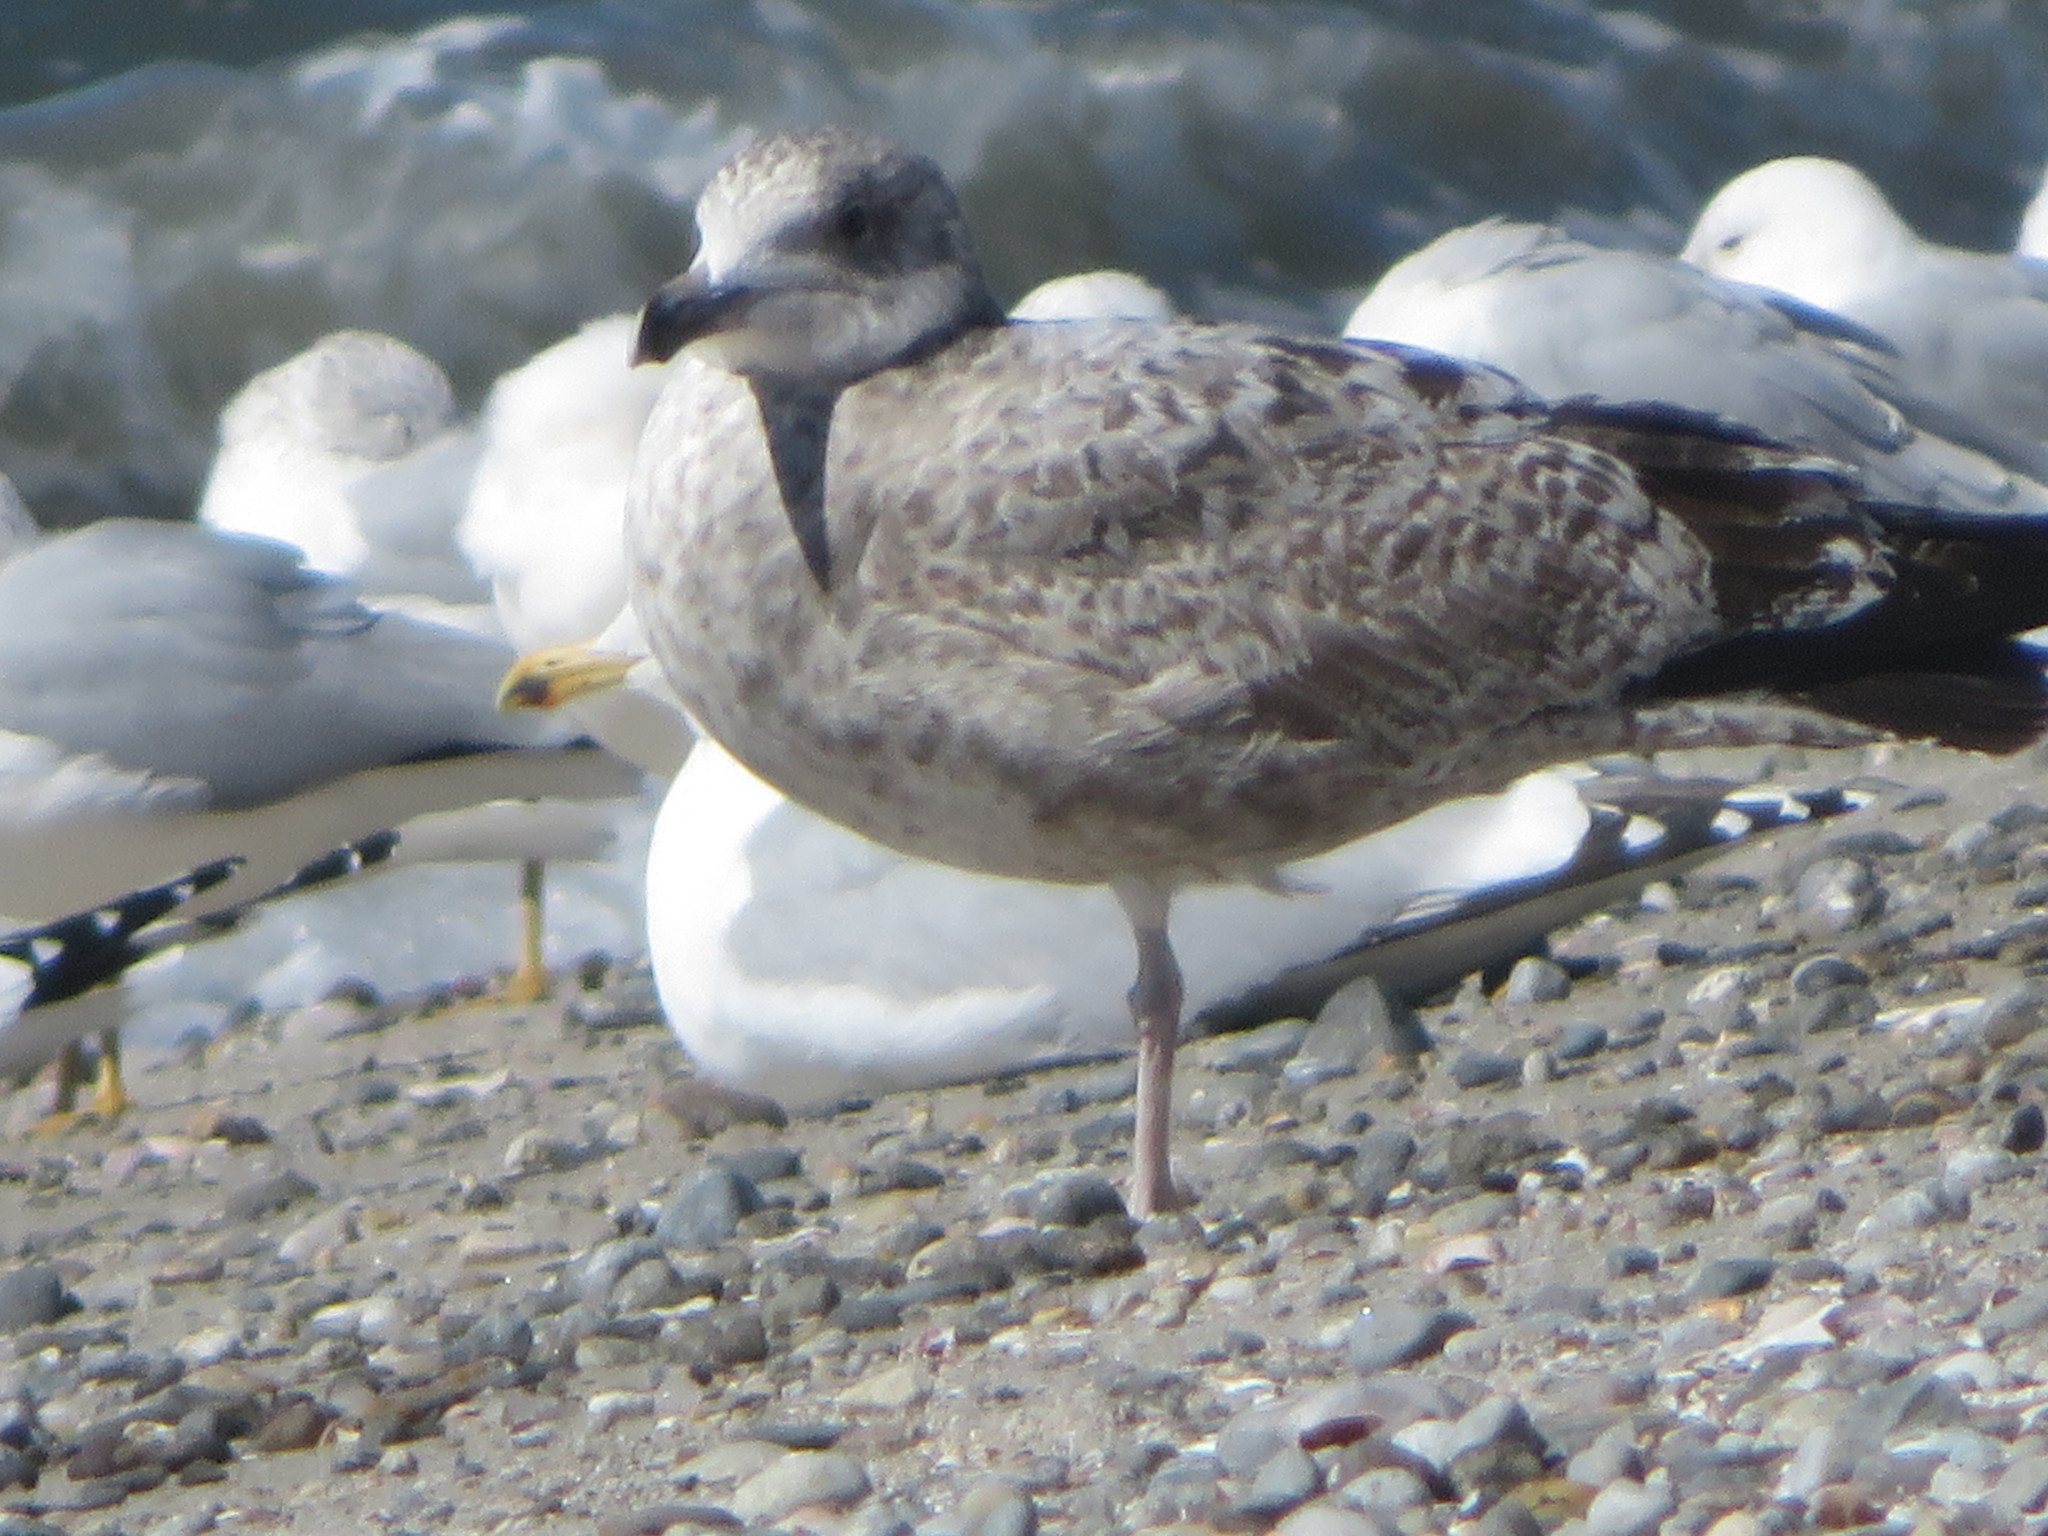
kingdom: Animalia
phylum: Chordata
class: Aves
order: Charadriiformes
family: Laridae
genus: Larus
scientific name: Larus argentatus
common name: Herring gull
